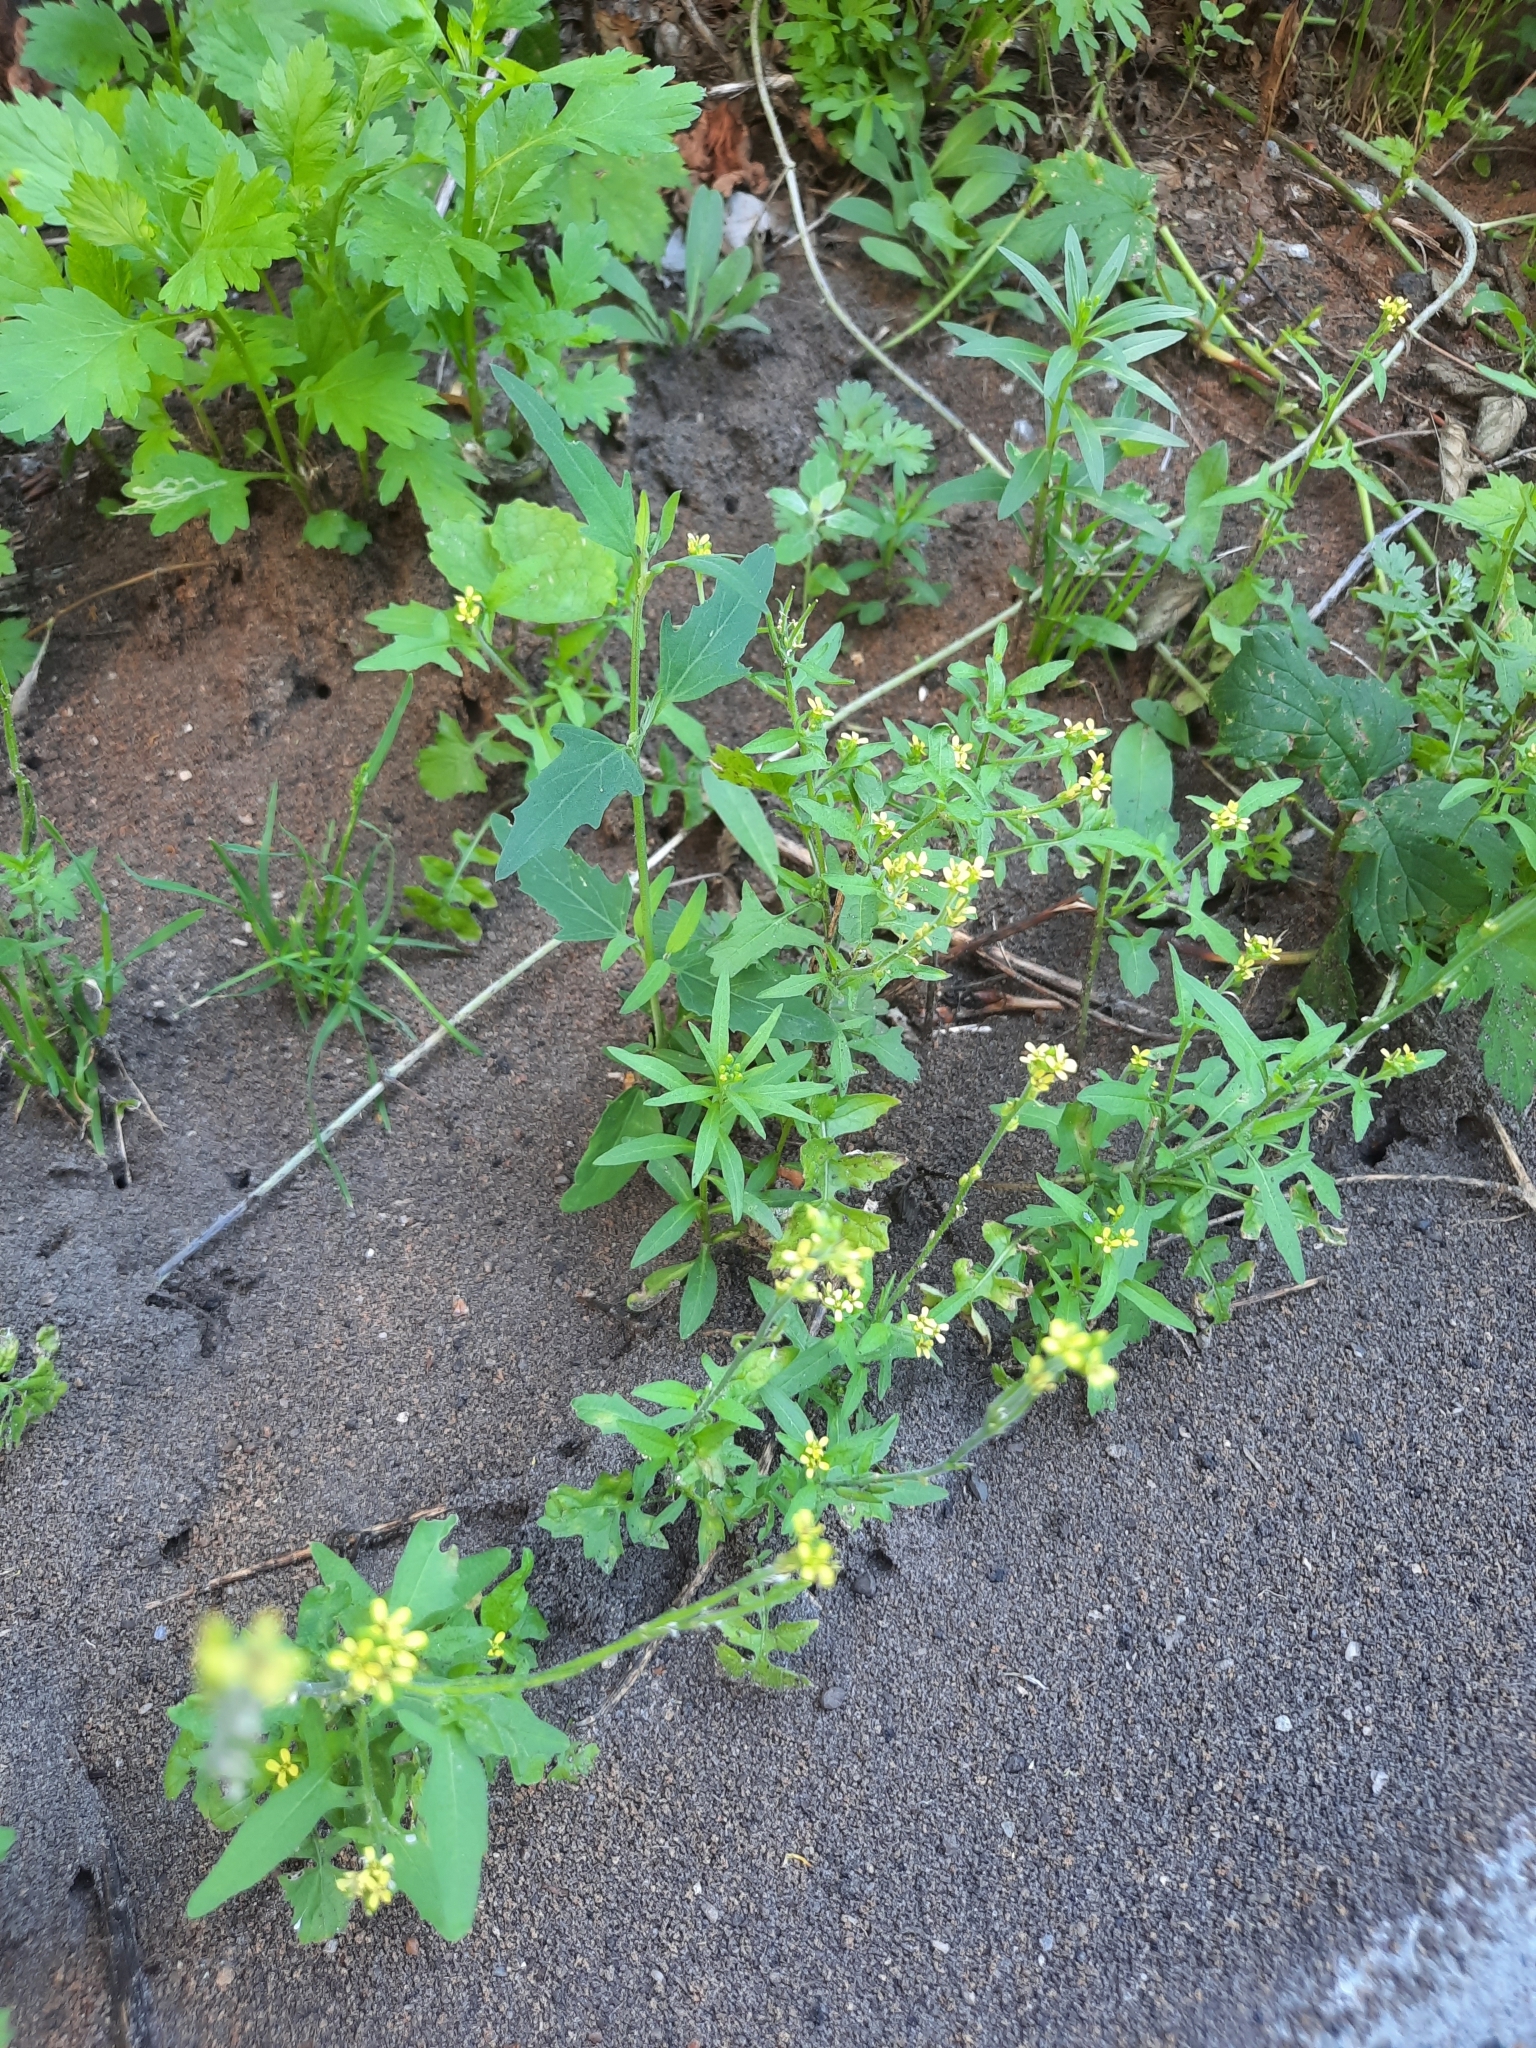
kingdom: Plantae
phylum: Tracheophyta
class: Magnoliopsida
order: Brassicales
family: Brassicaceae
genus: Sisymbrium
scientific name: Sisymbrium officinale
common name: Hedge mustard
